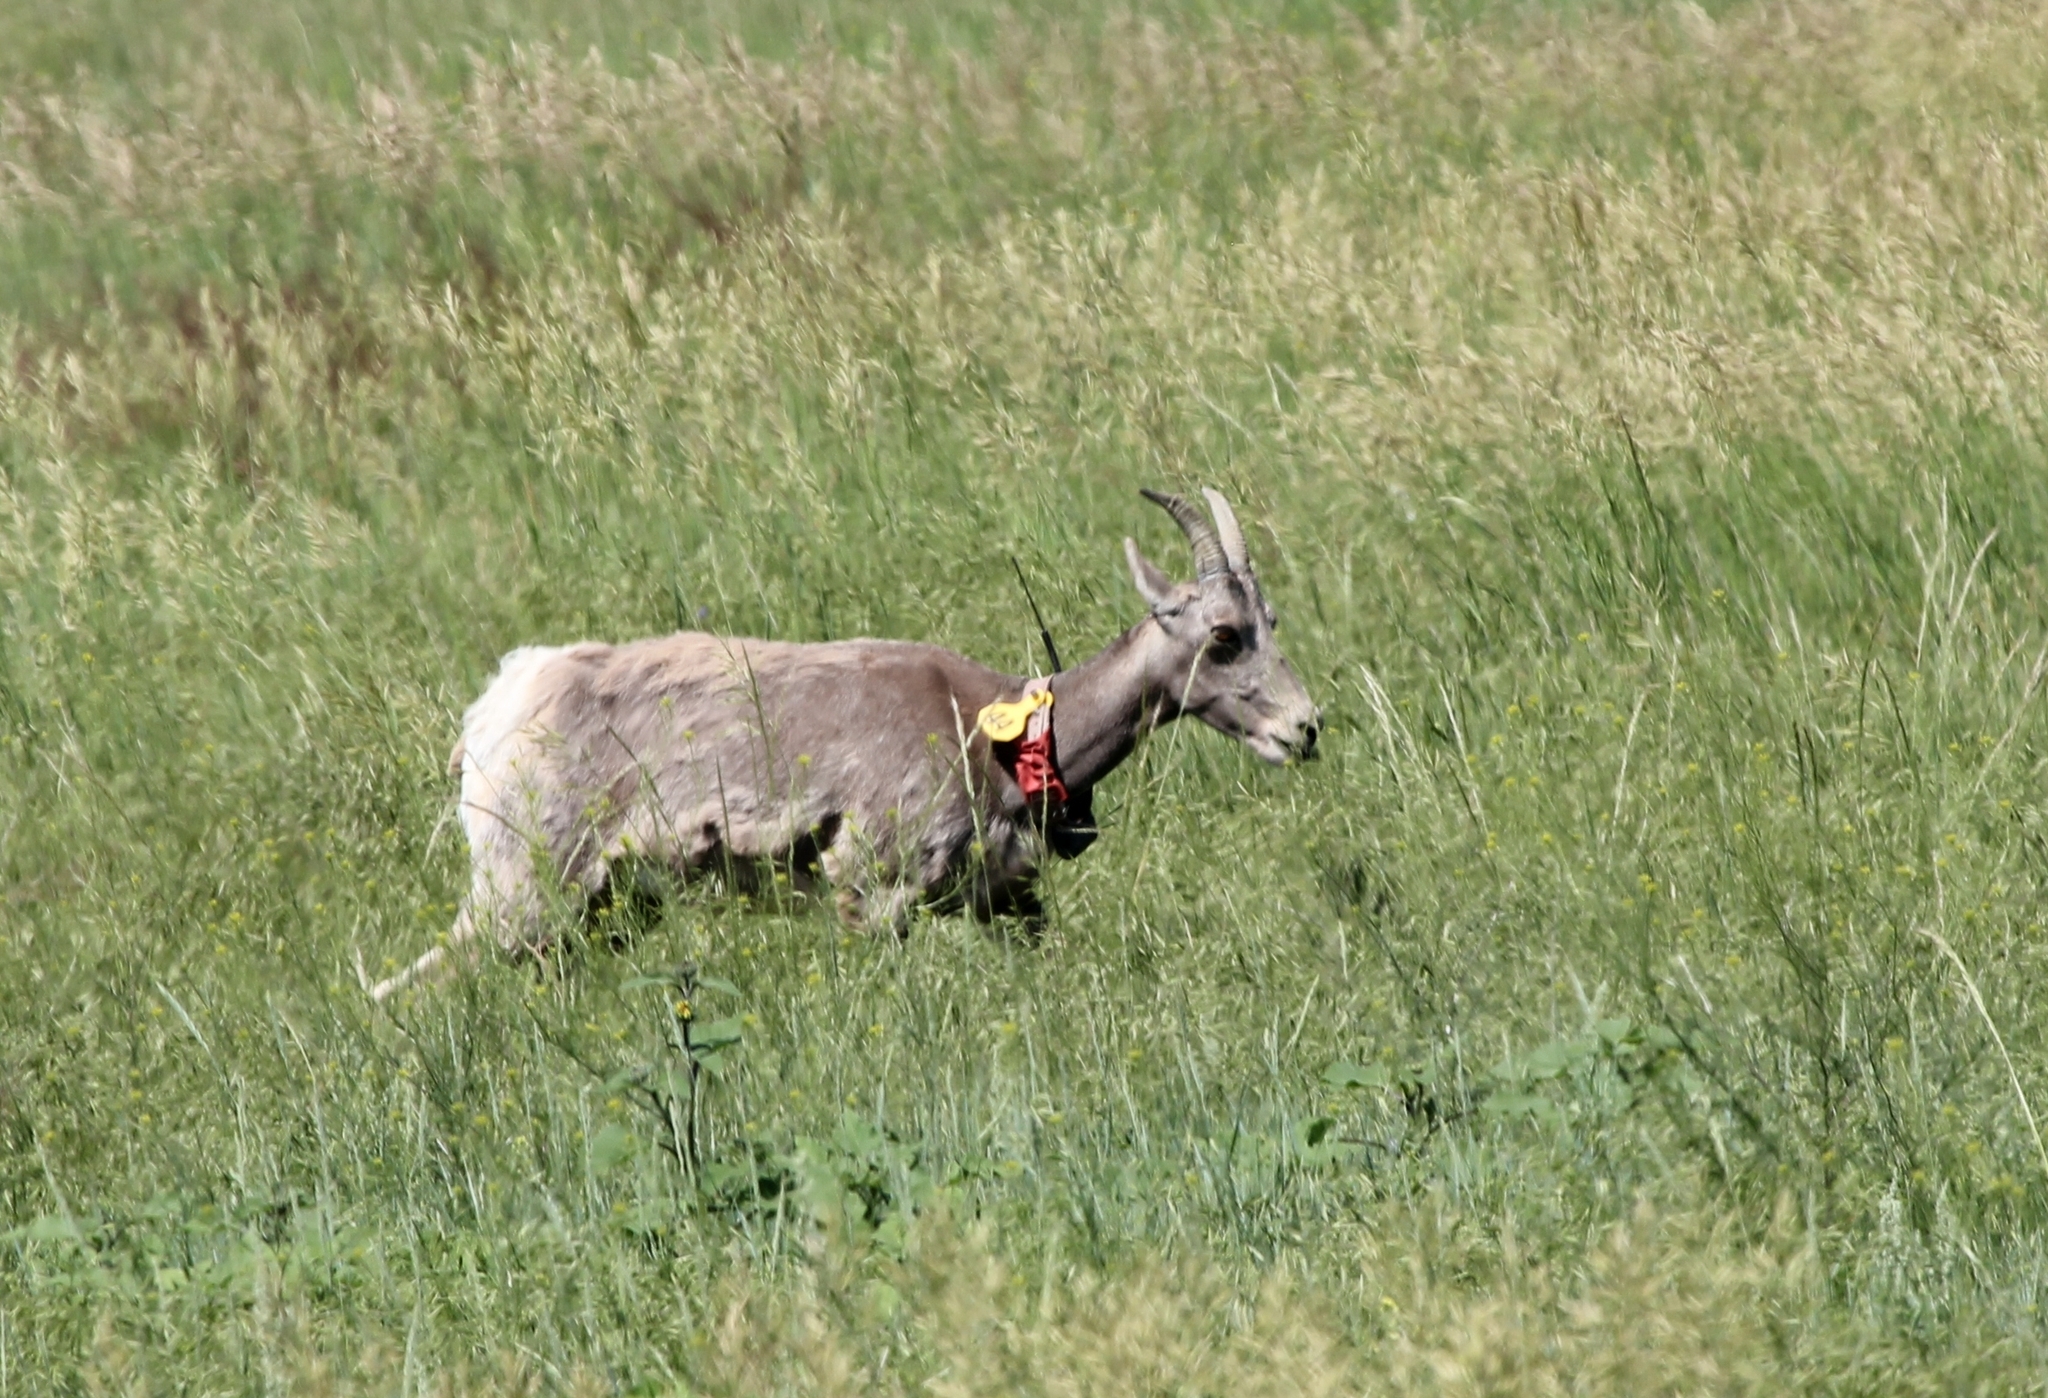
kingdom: Animalia
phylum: Chordata
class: Mammalia
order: Artiodactyla
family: Bovidae
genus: Ovis
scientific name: Ovis canadensis
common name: Bighorn sheep
